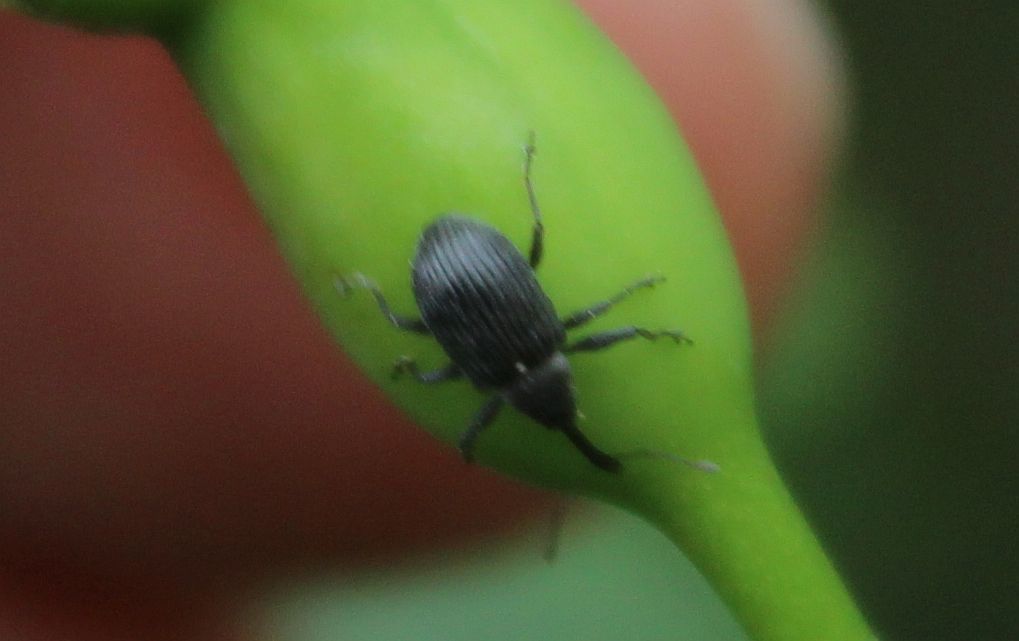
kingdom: Animalia
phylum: Arthropoda
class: Insecta
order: Coleoptera
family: Curculionidae
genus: Anthonomus
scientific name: Anthonomus rubi
